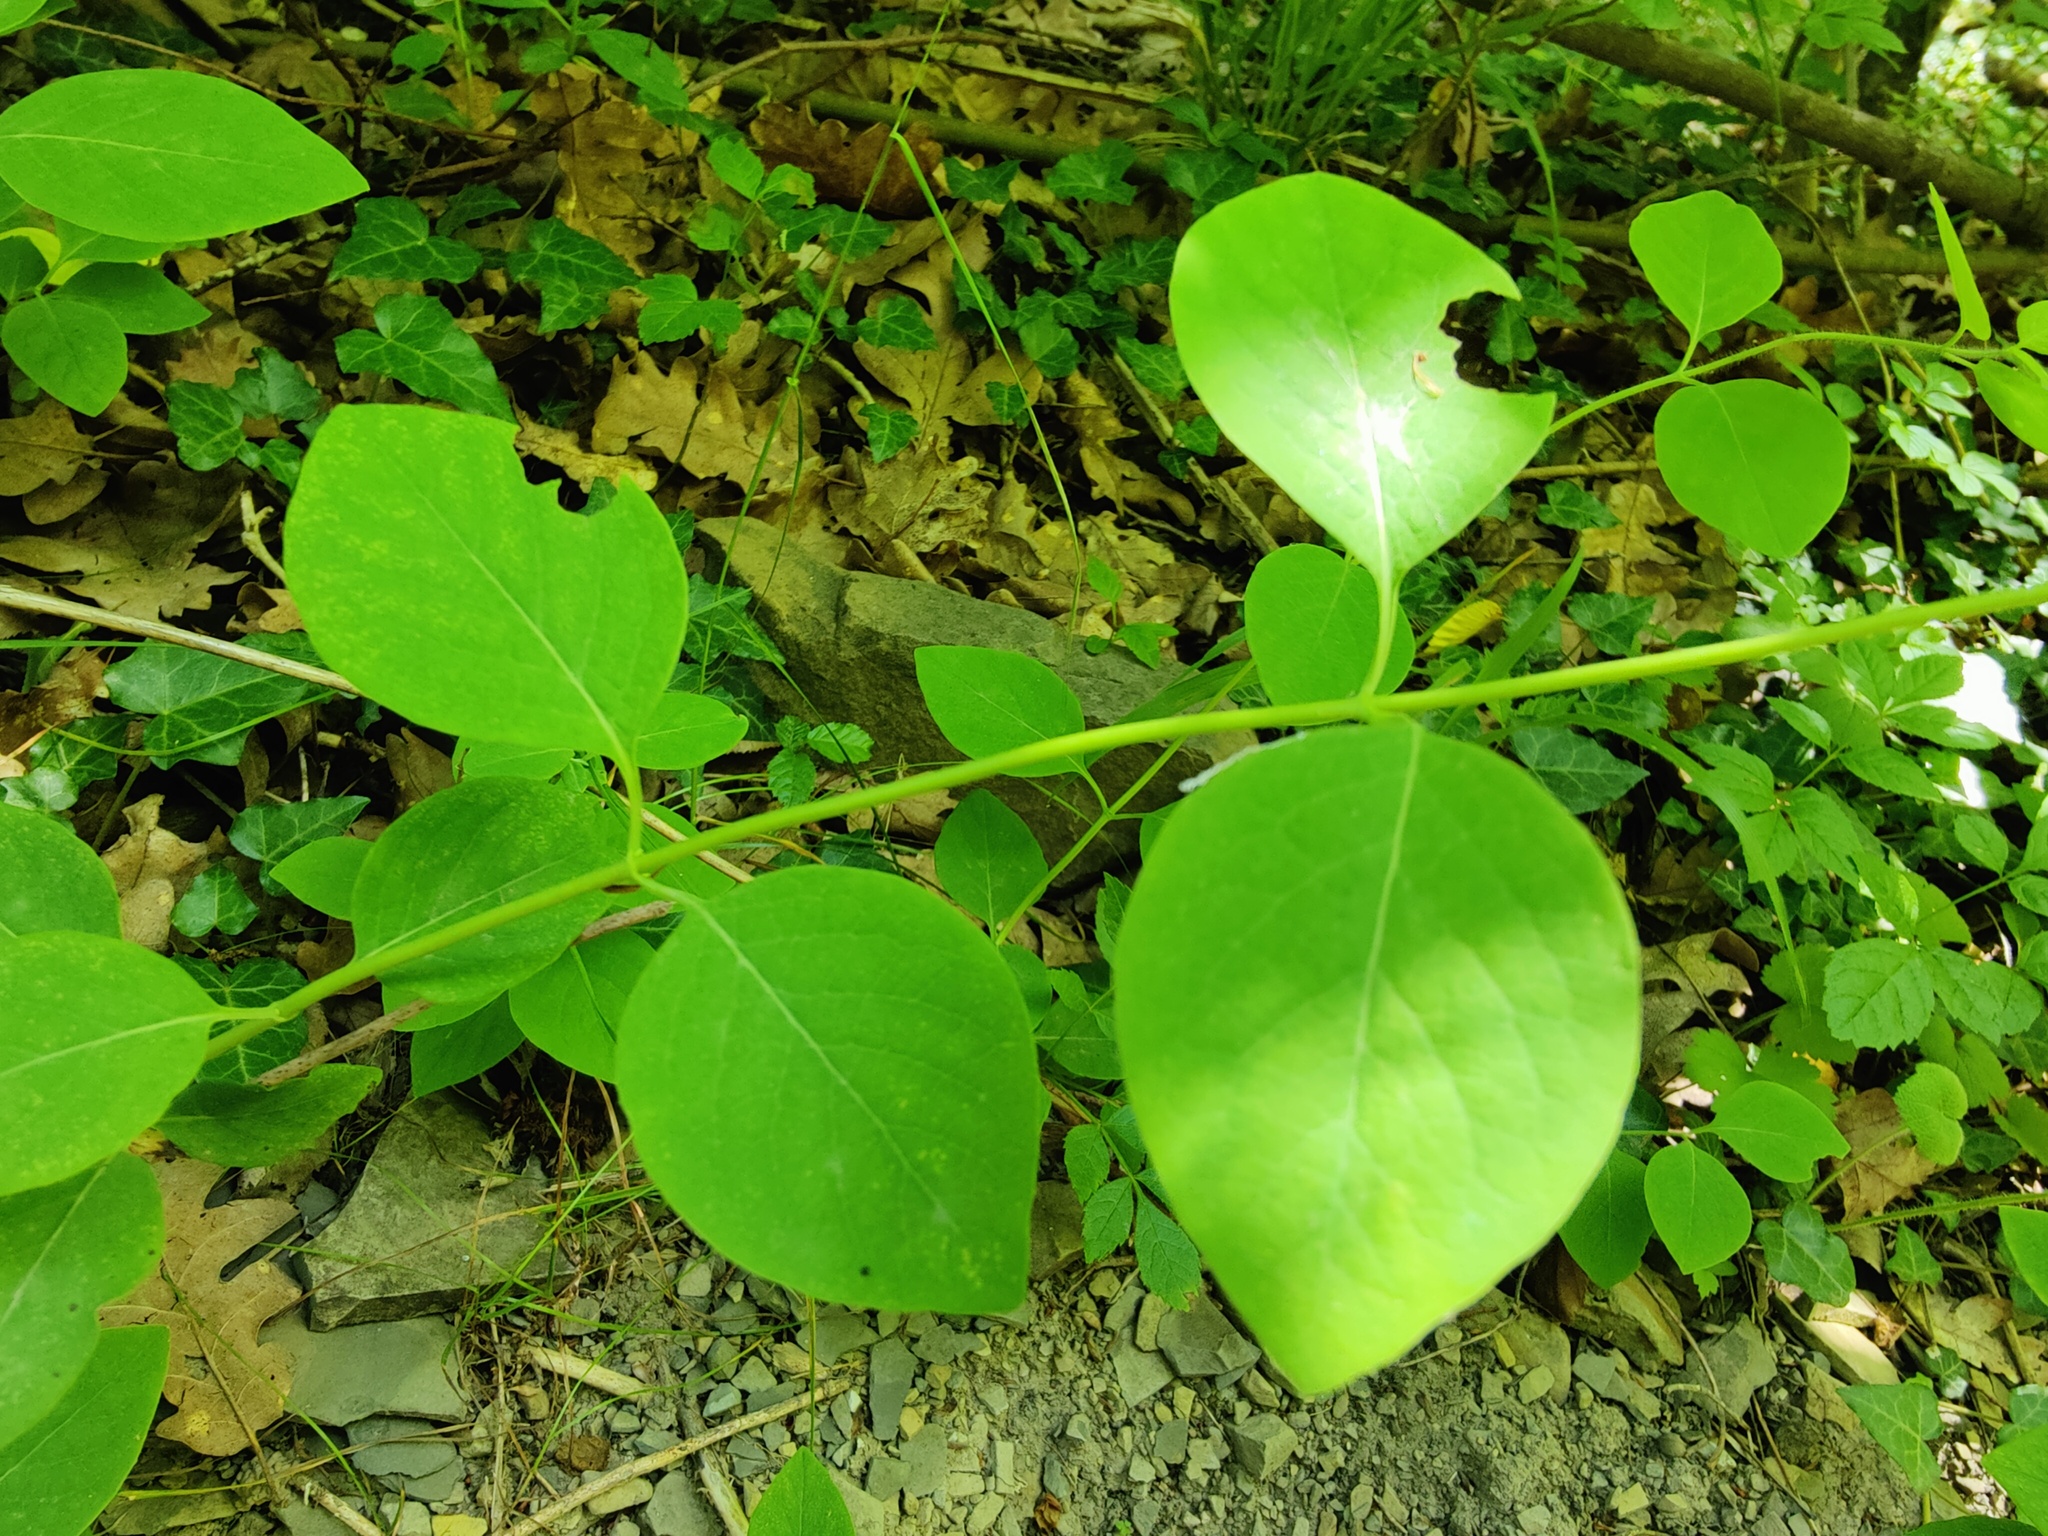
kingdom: Plantae
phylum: Tracheophyta
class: Magnoliopsida
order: Dipsacales
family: Caprifoliaceae
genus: Lonicera
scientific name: Lonicera caprifolium
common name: Perfoliate honeysuckle
